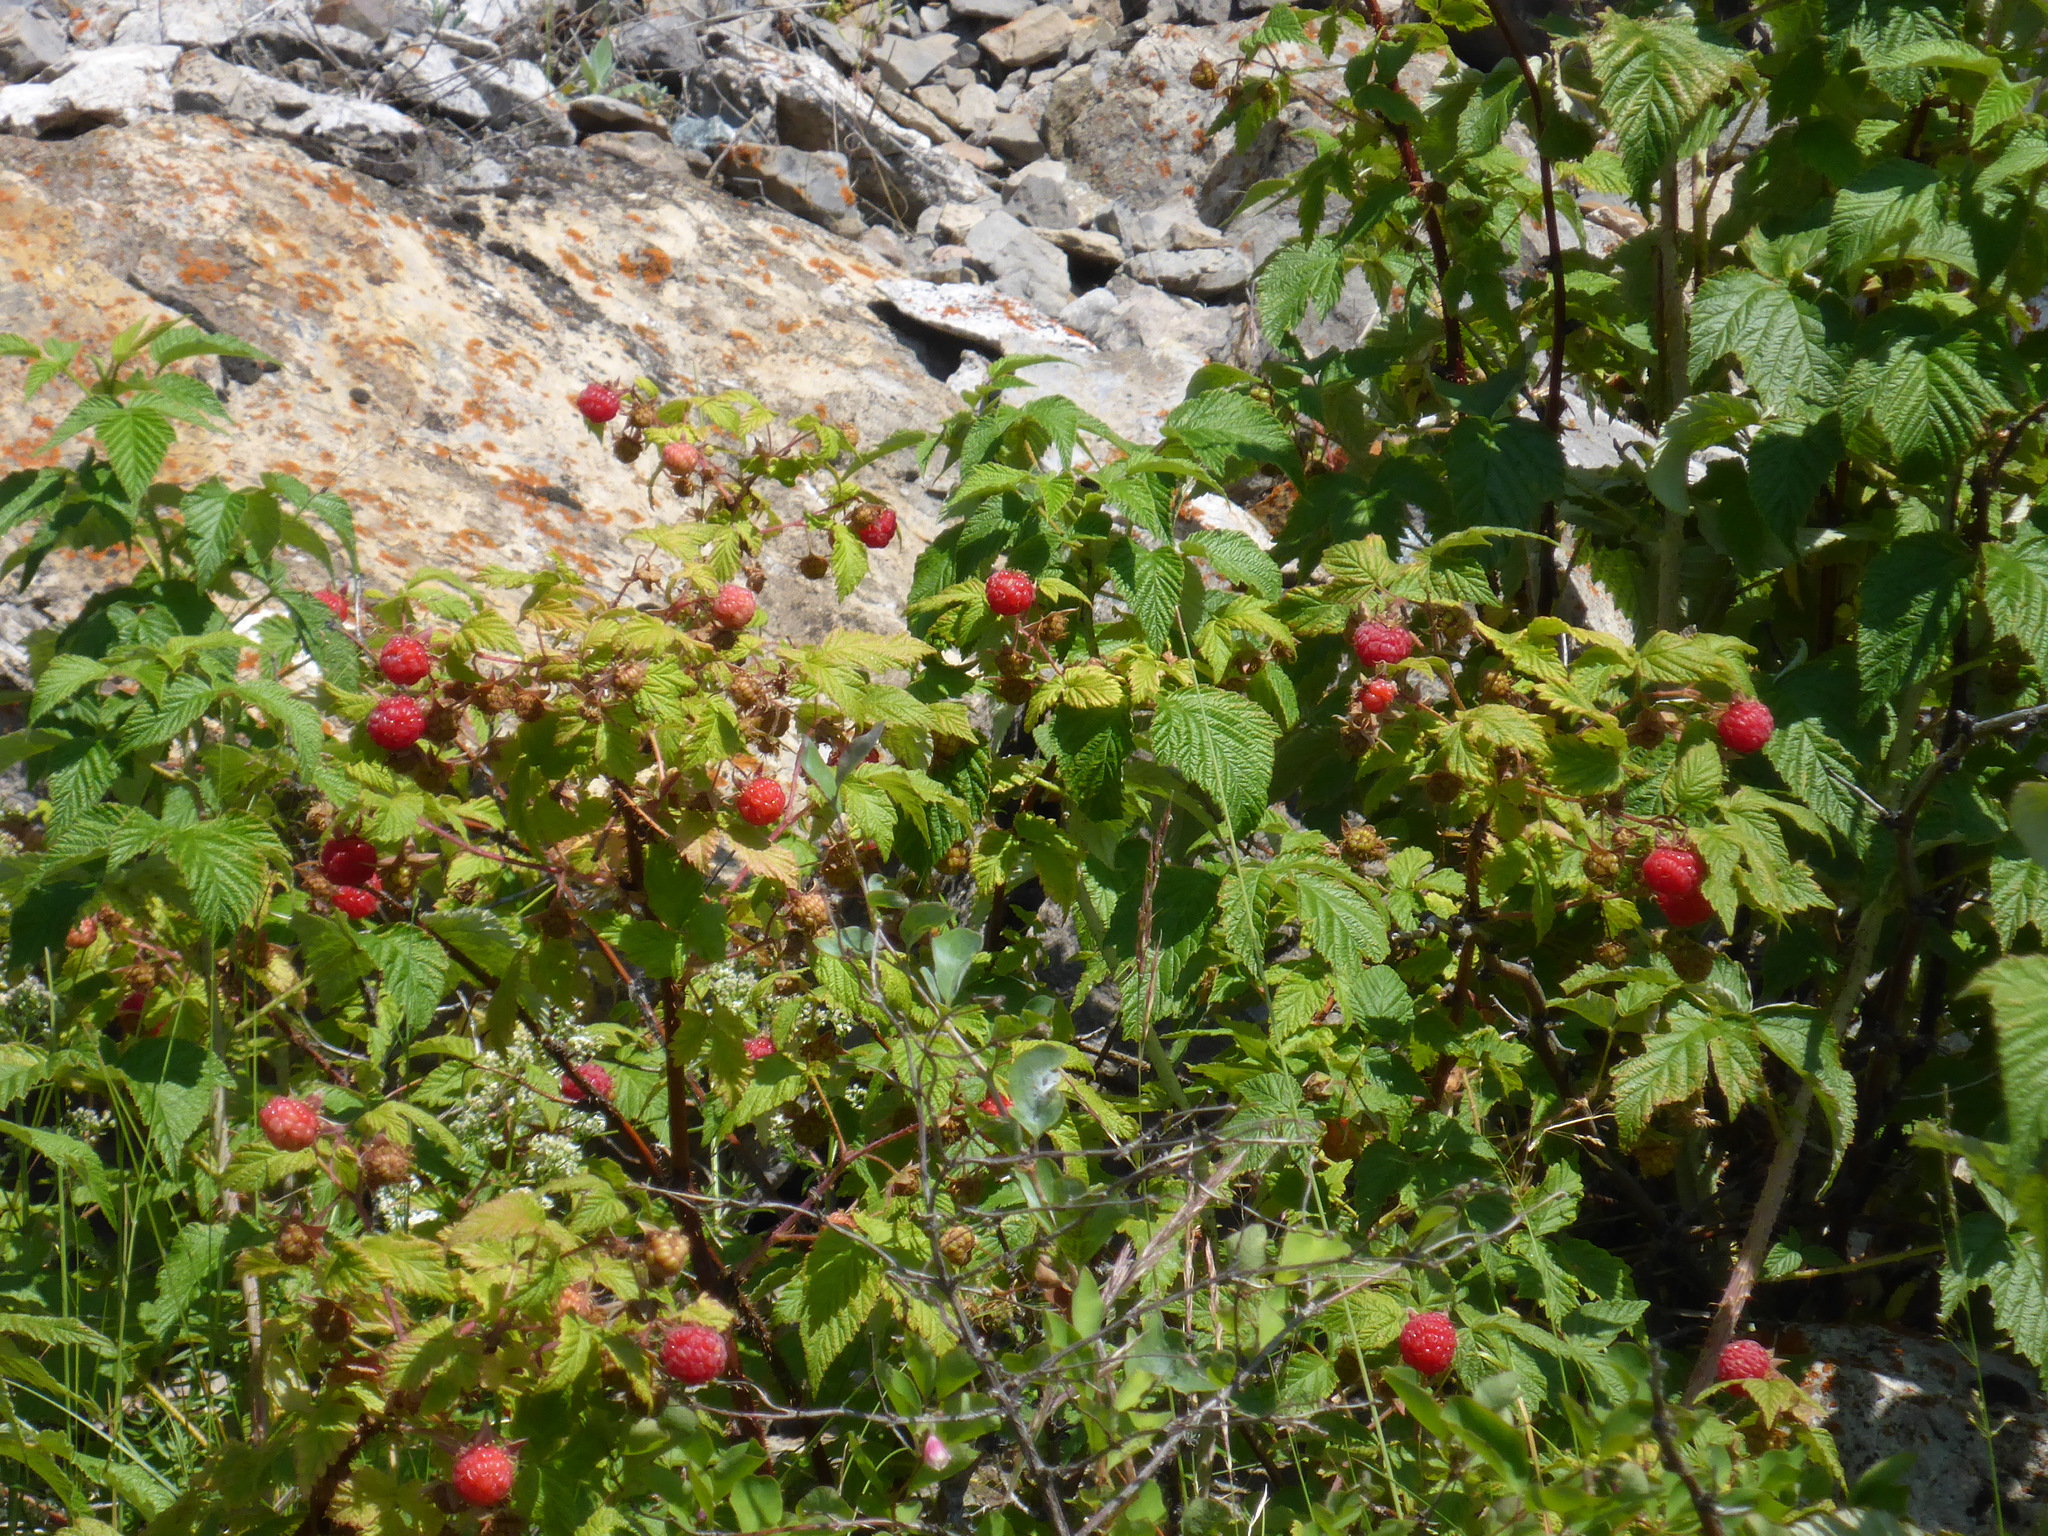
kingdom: Plantae
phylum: Tracheophyta
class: Magnoliopsida
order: Rosales
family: Rosaceae
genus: Rubus
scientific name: Rubus idaeus
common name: Raspberry
